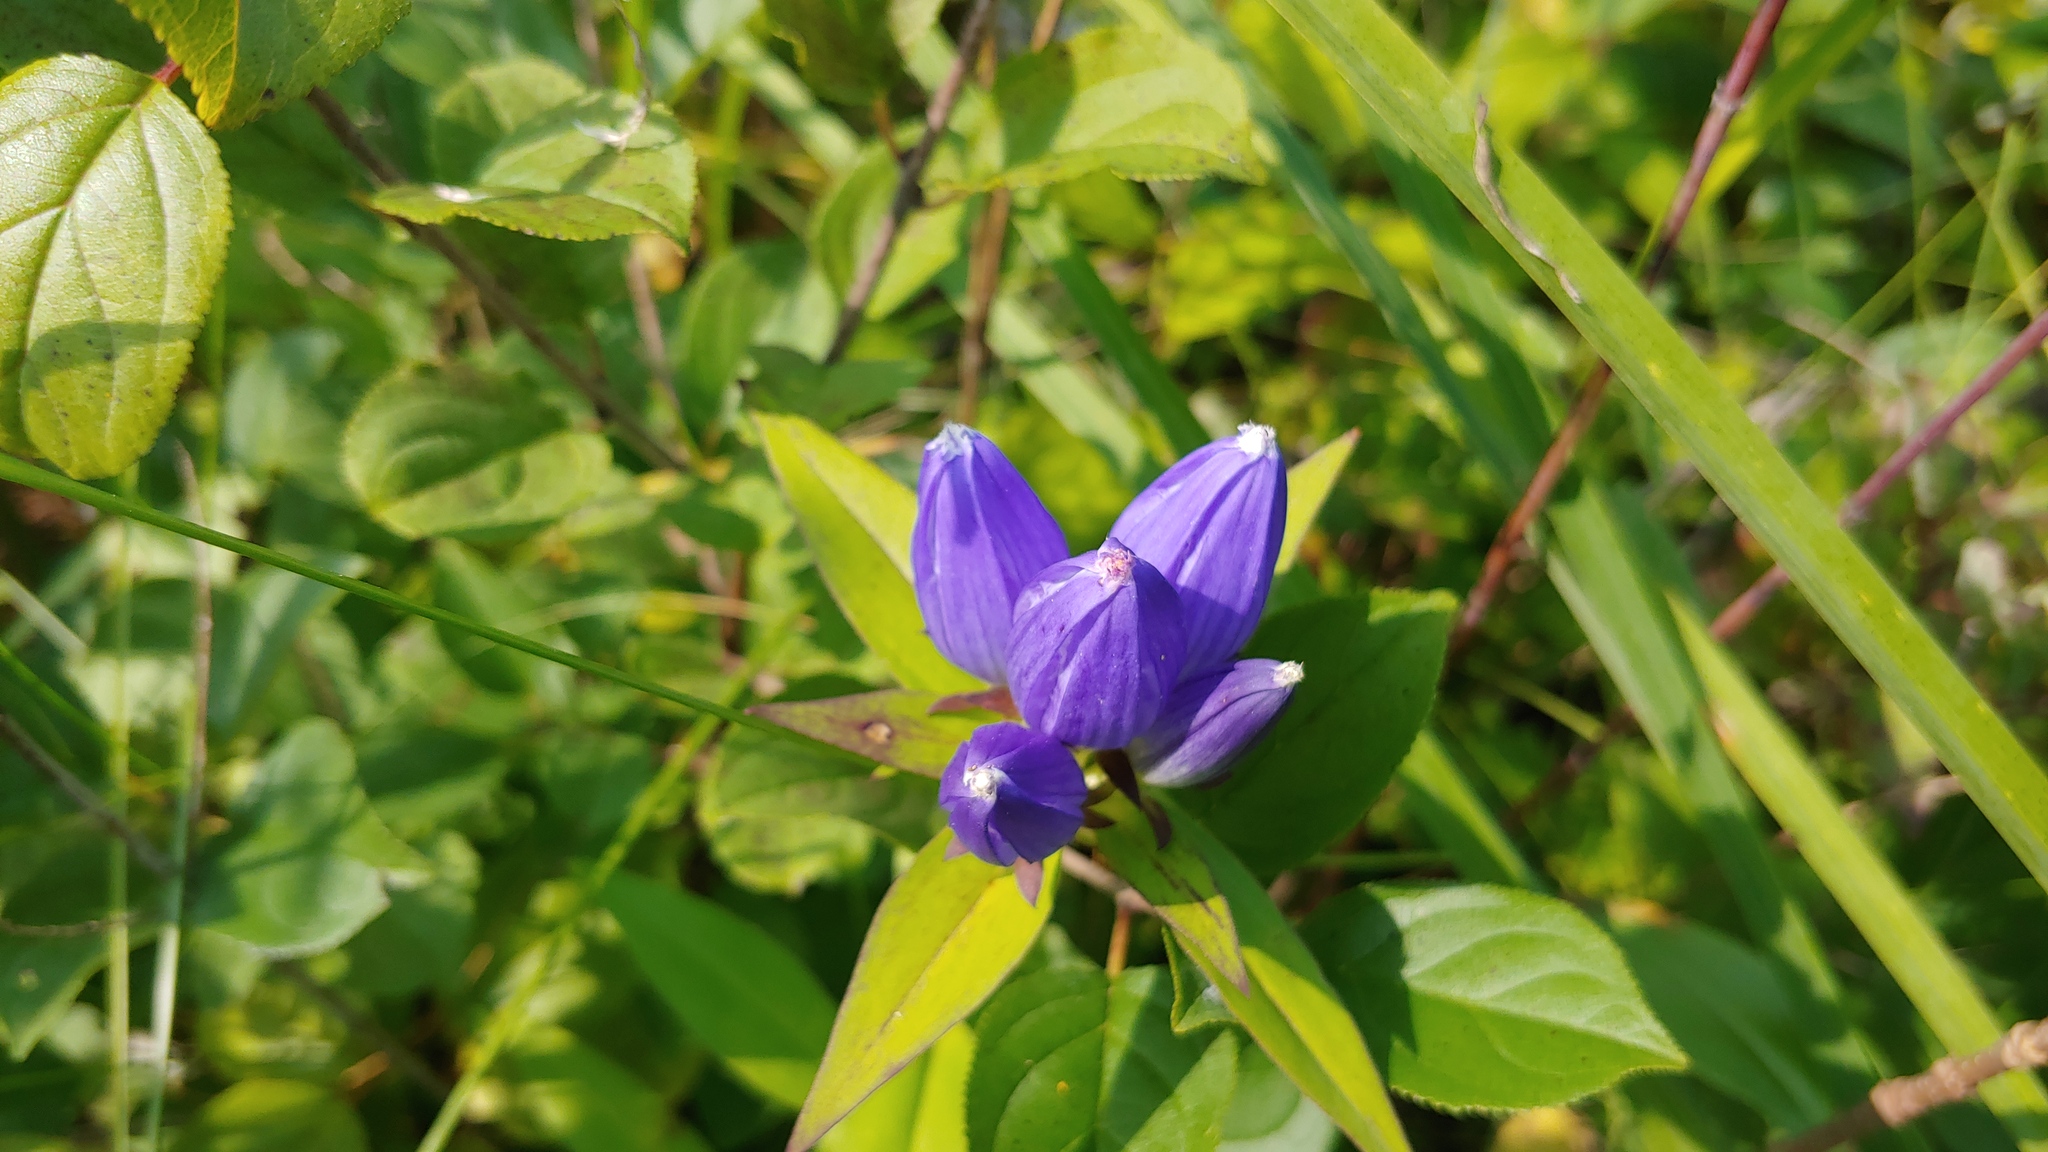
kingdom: Plantae
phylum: Tracheophyta
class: Magnoliopsida
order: Gentianales
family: Gentianaceae
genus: Gentiana
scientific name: Gentiana andrewsii
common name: Bottle gentian
